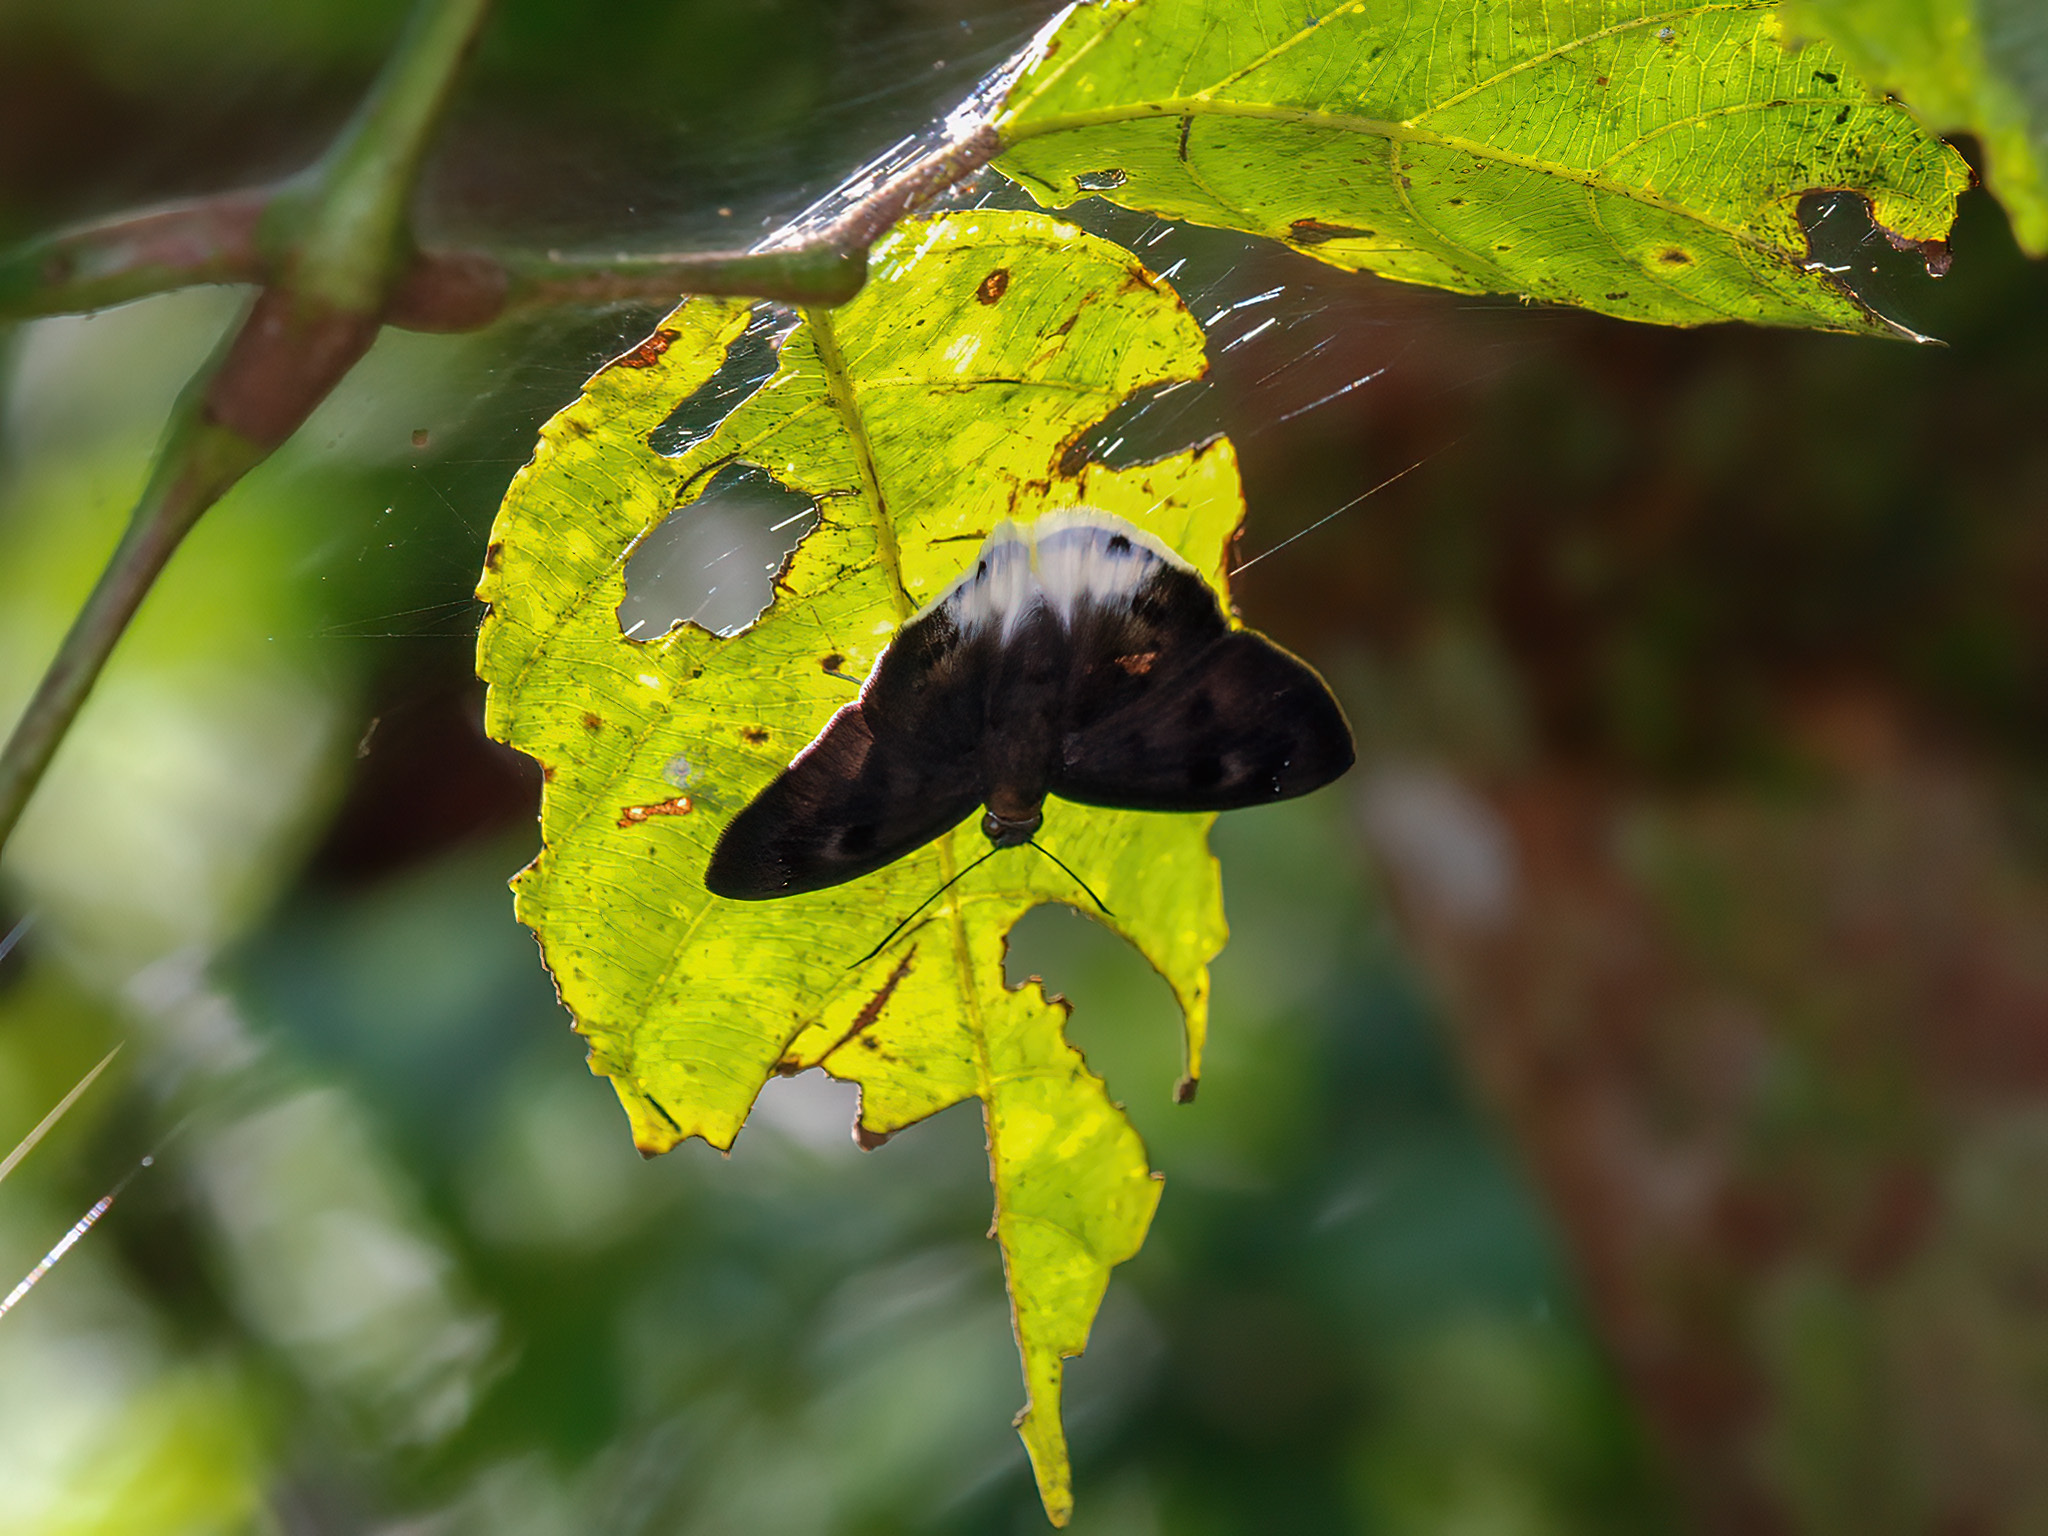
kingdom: Animalia
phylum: Arthropoda
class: Insecta
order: Lepidoptera
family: Hesperiidae
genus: Tagiades
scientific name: Tagiades gana
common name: Suffused snow flat
